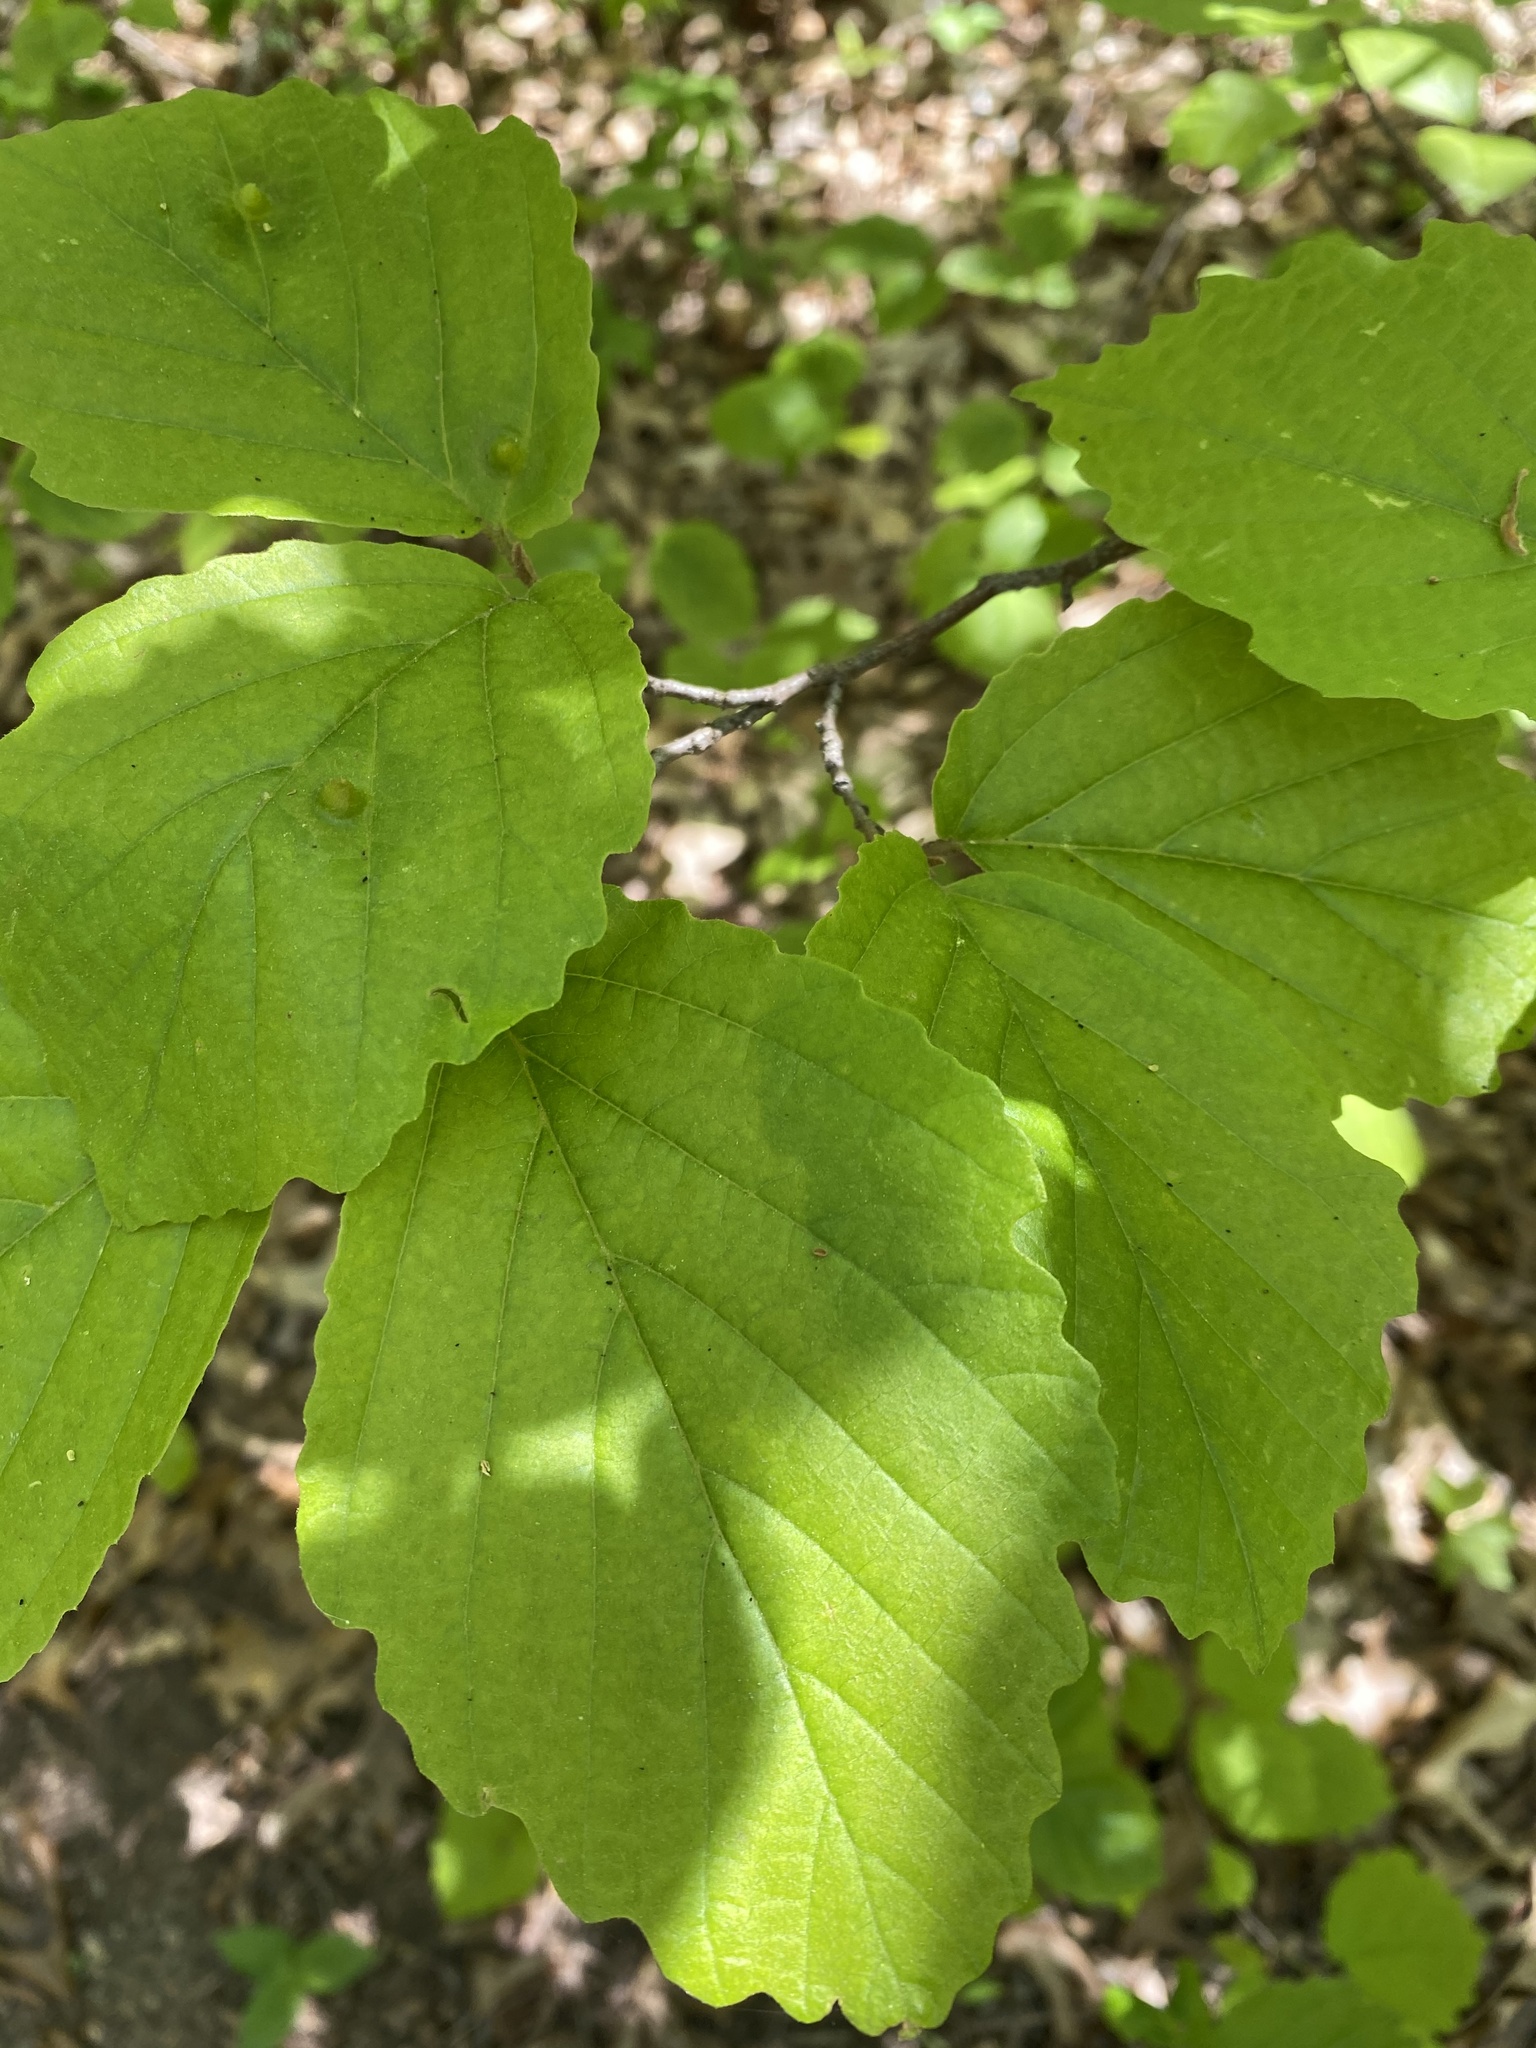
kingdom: Plantae
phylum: Tracheophyta
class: Magnoliopsida
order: Saxifragales
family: Hamamelidaceae
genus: Hamamelis
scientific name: Hamamelis virginiana
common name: Witch-hazel
